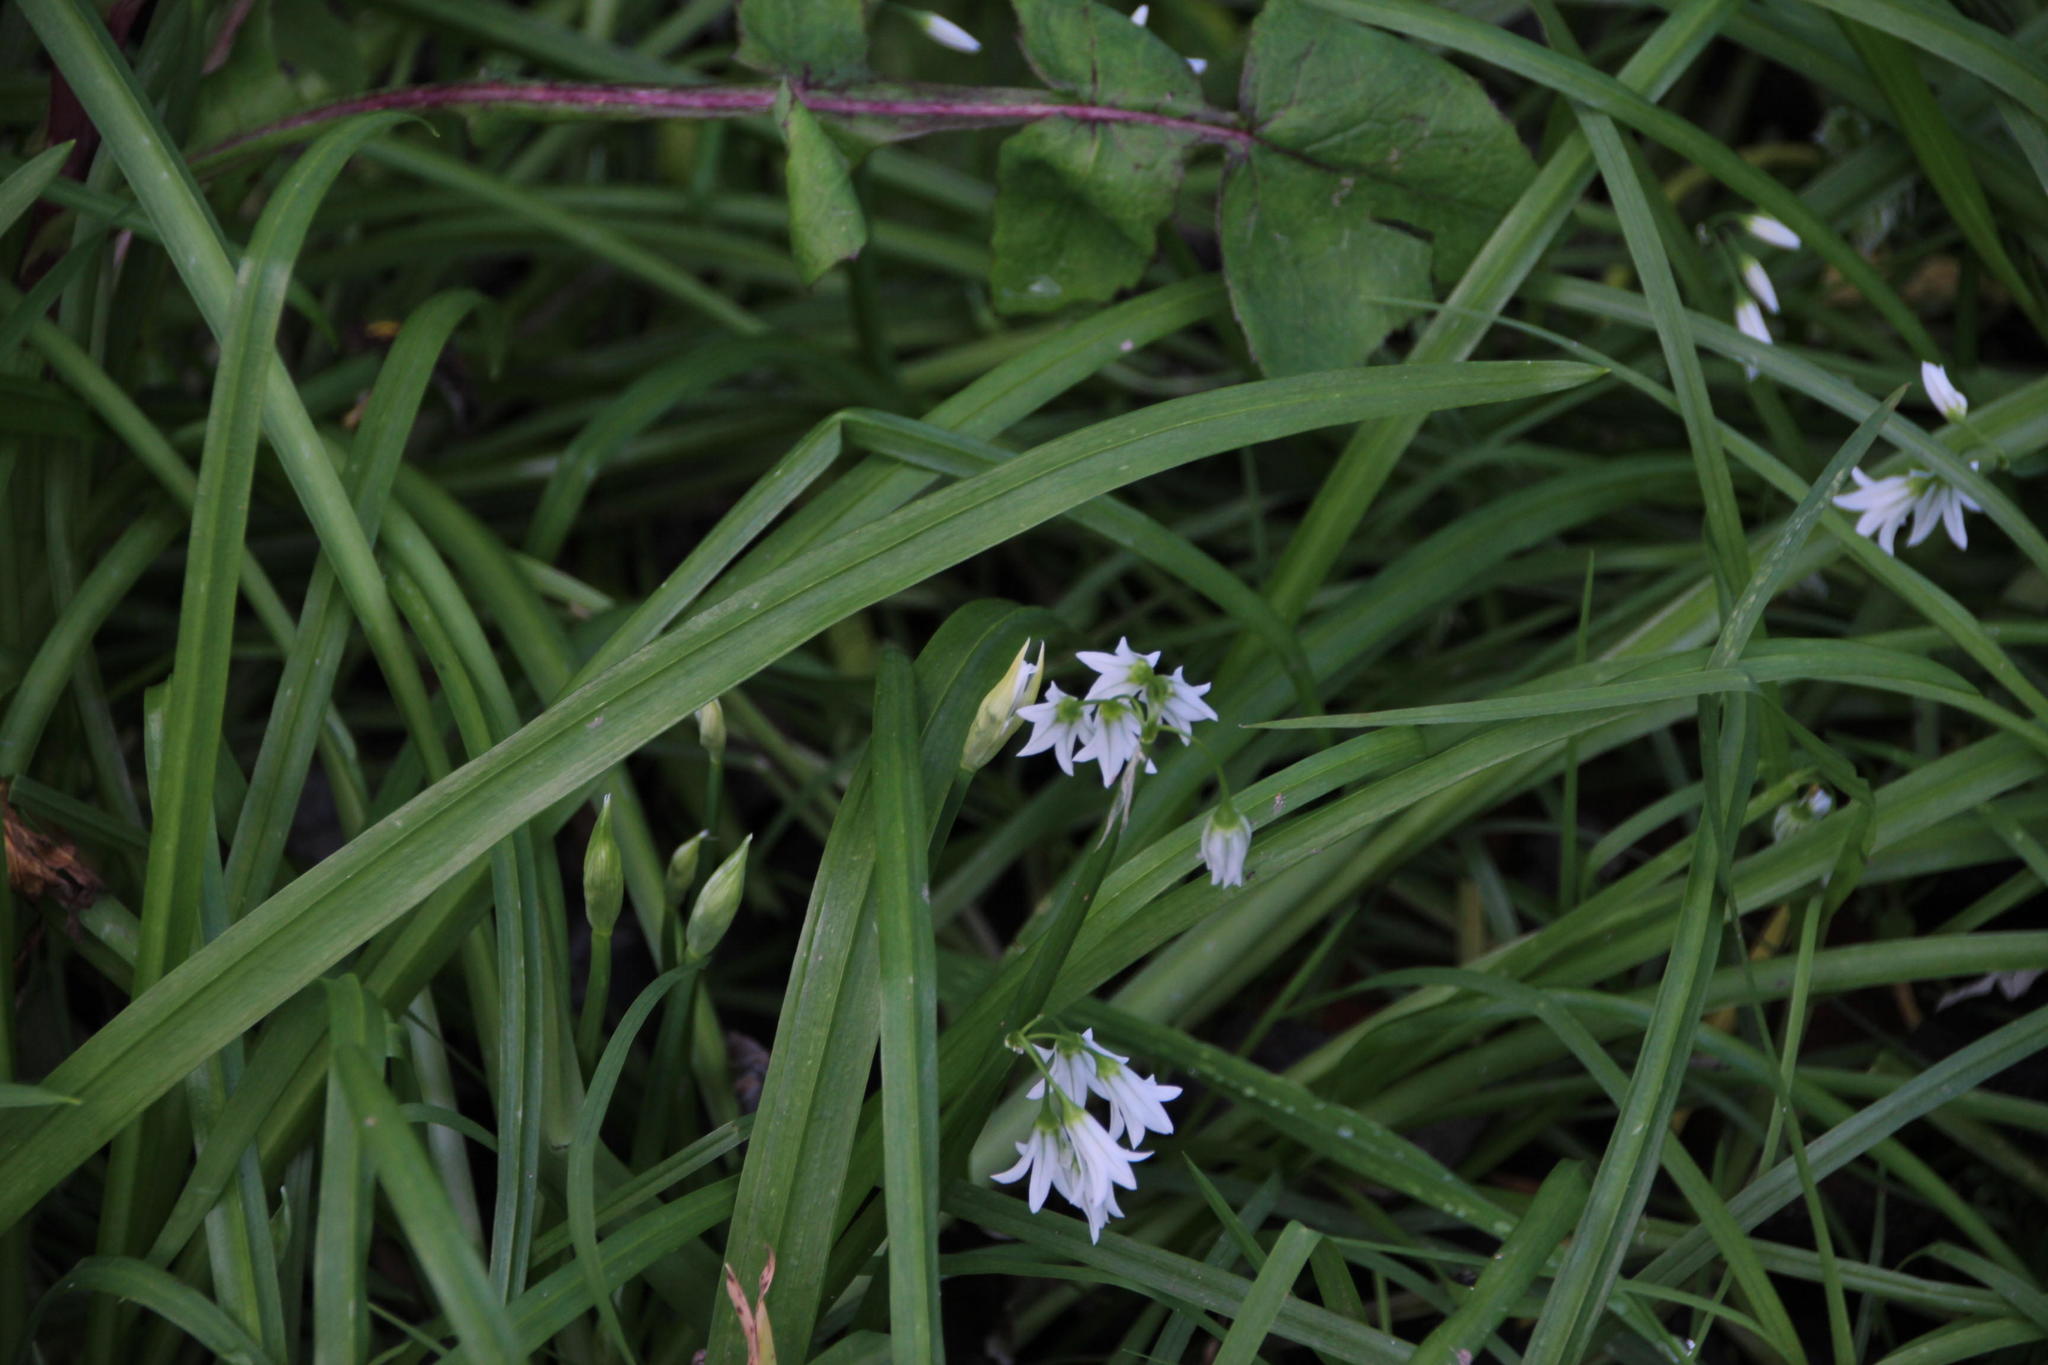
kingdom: Plantae
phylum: Tracheophyta
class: Liliopsida
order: Asparagales
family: Amaryllidaceae
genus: Allium
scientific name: Allium triquetrum
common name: Three-cornered garlic
